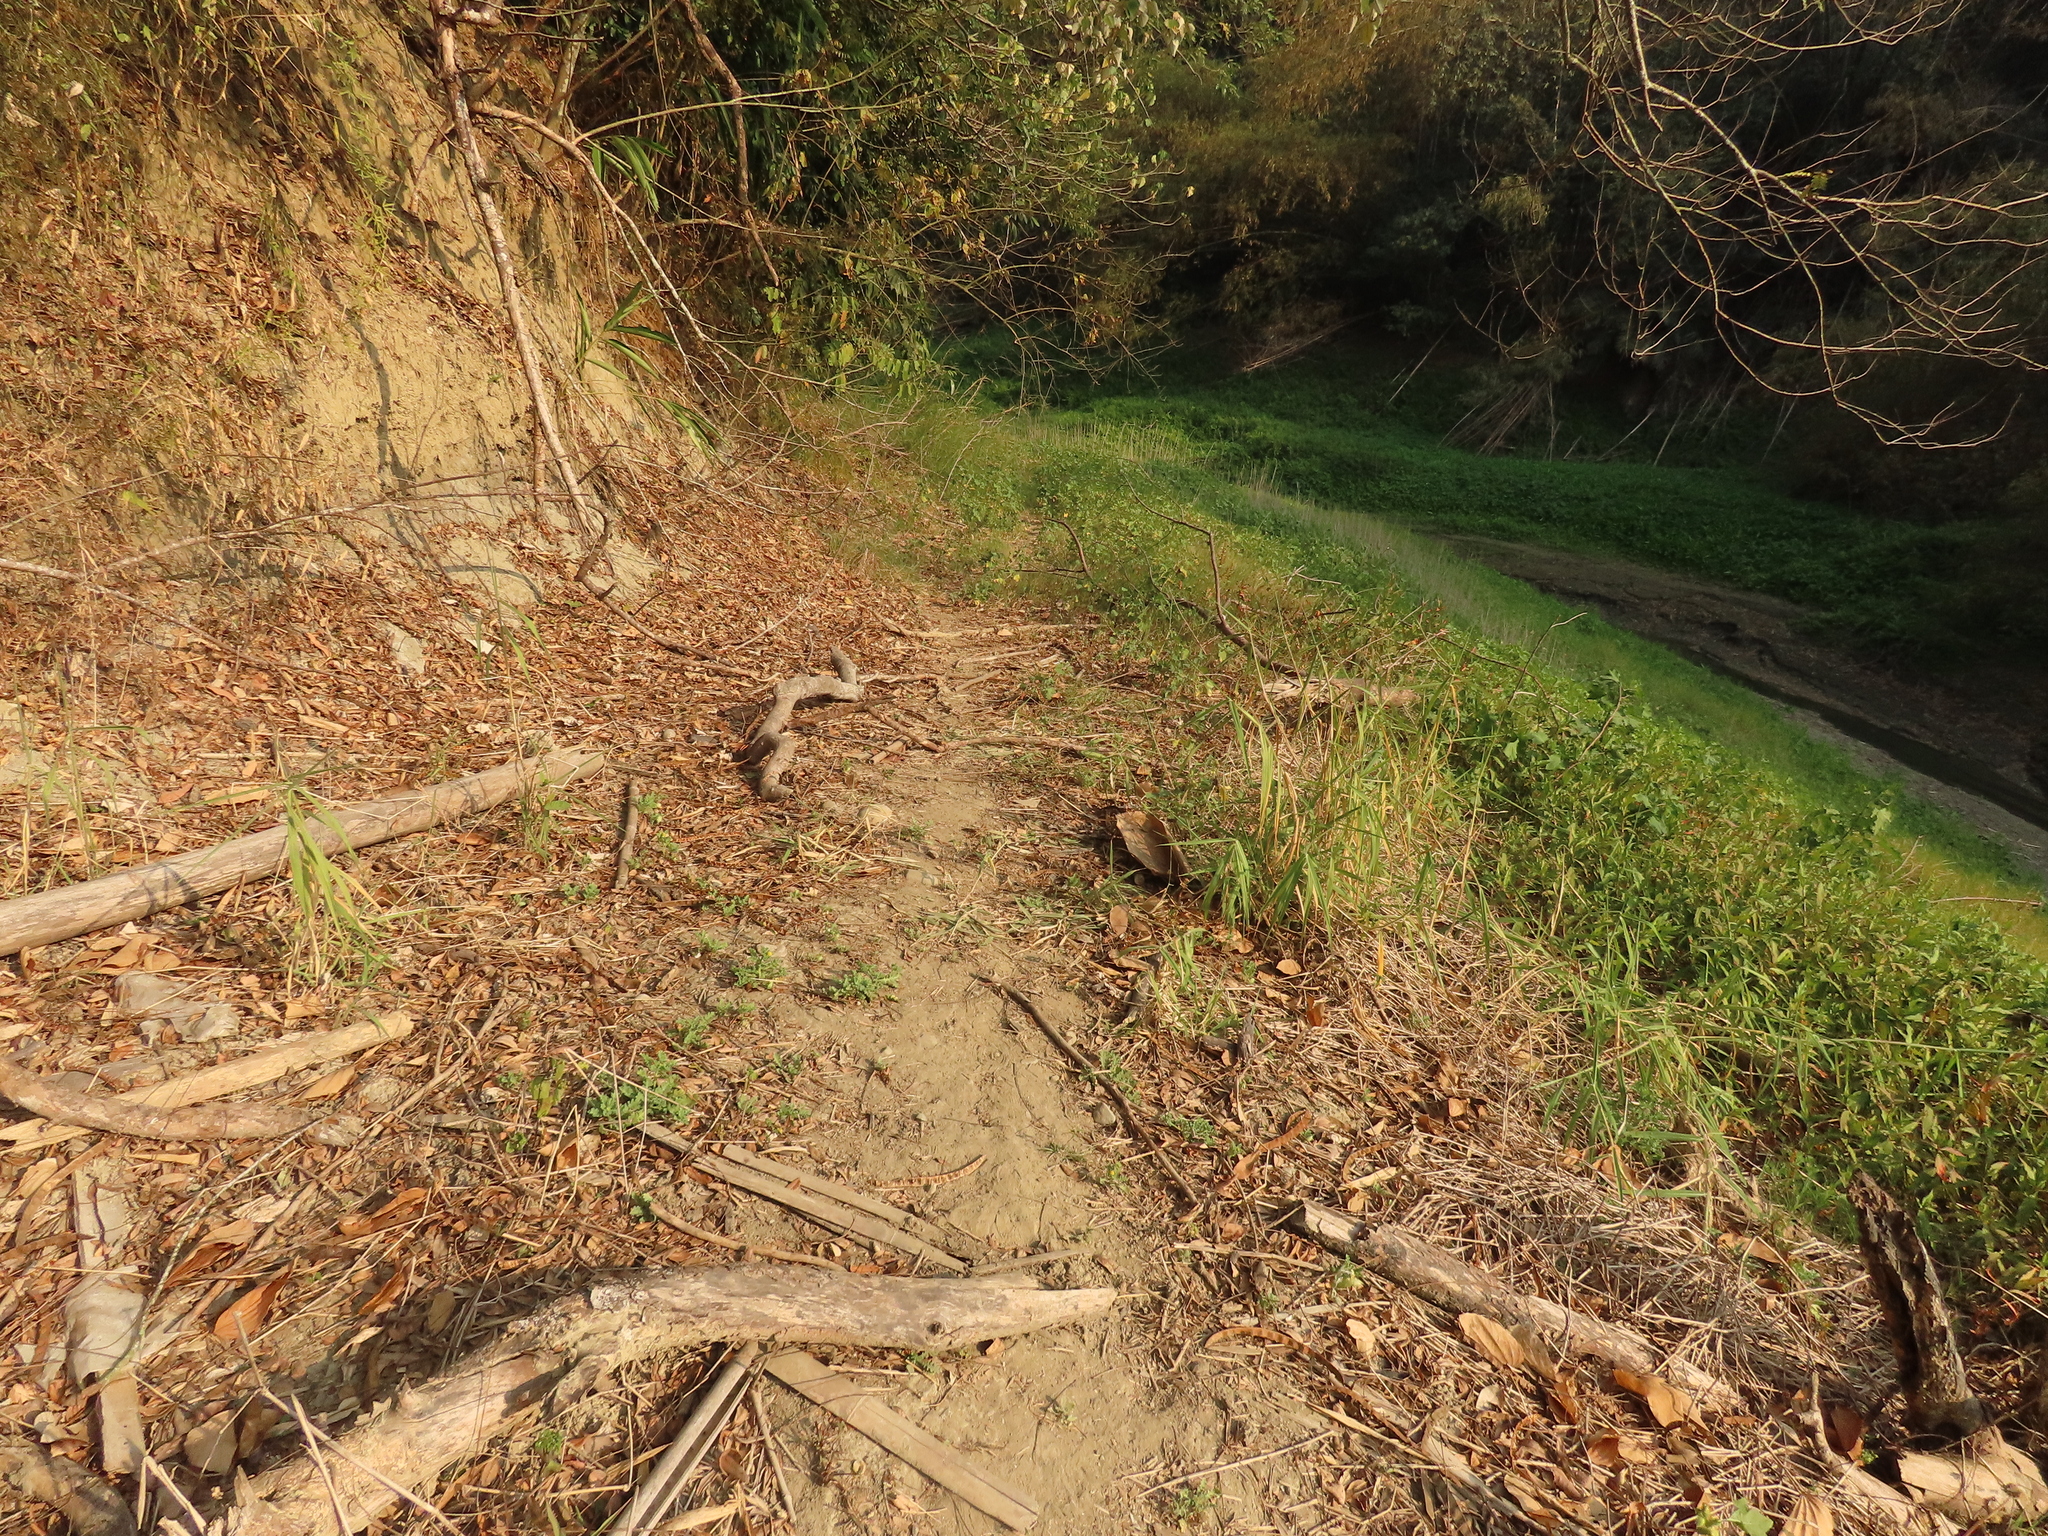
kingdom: Plantae
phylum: Tracheophyta
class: Magnoliopsida
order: Asterales
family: Asteraceae
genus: Grangea
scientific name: Grangea maderaspatana
